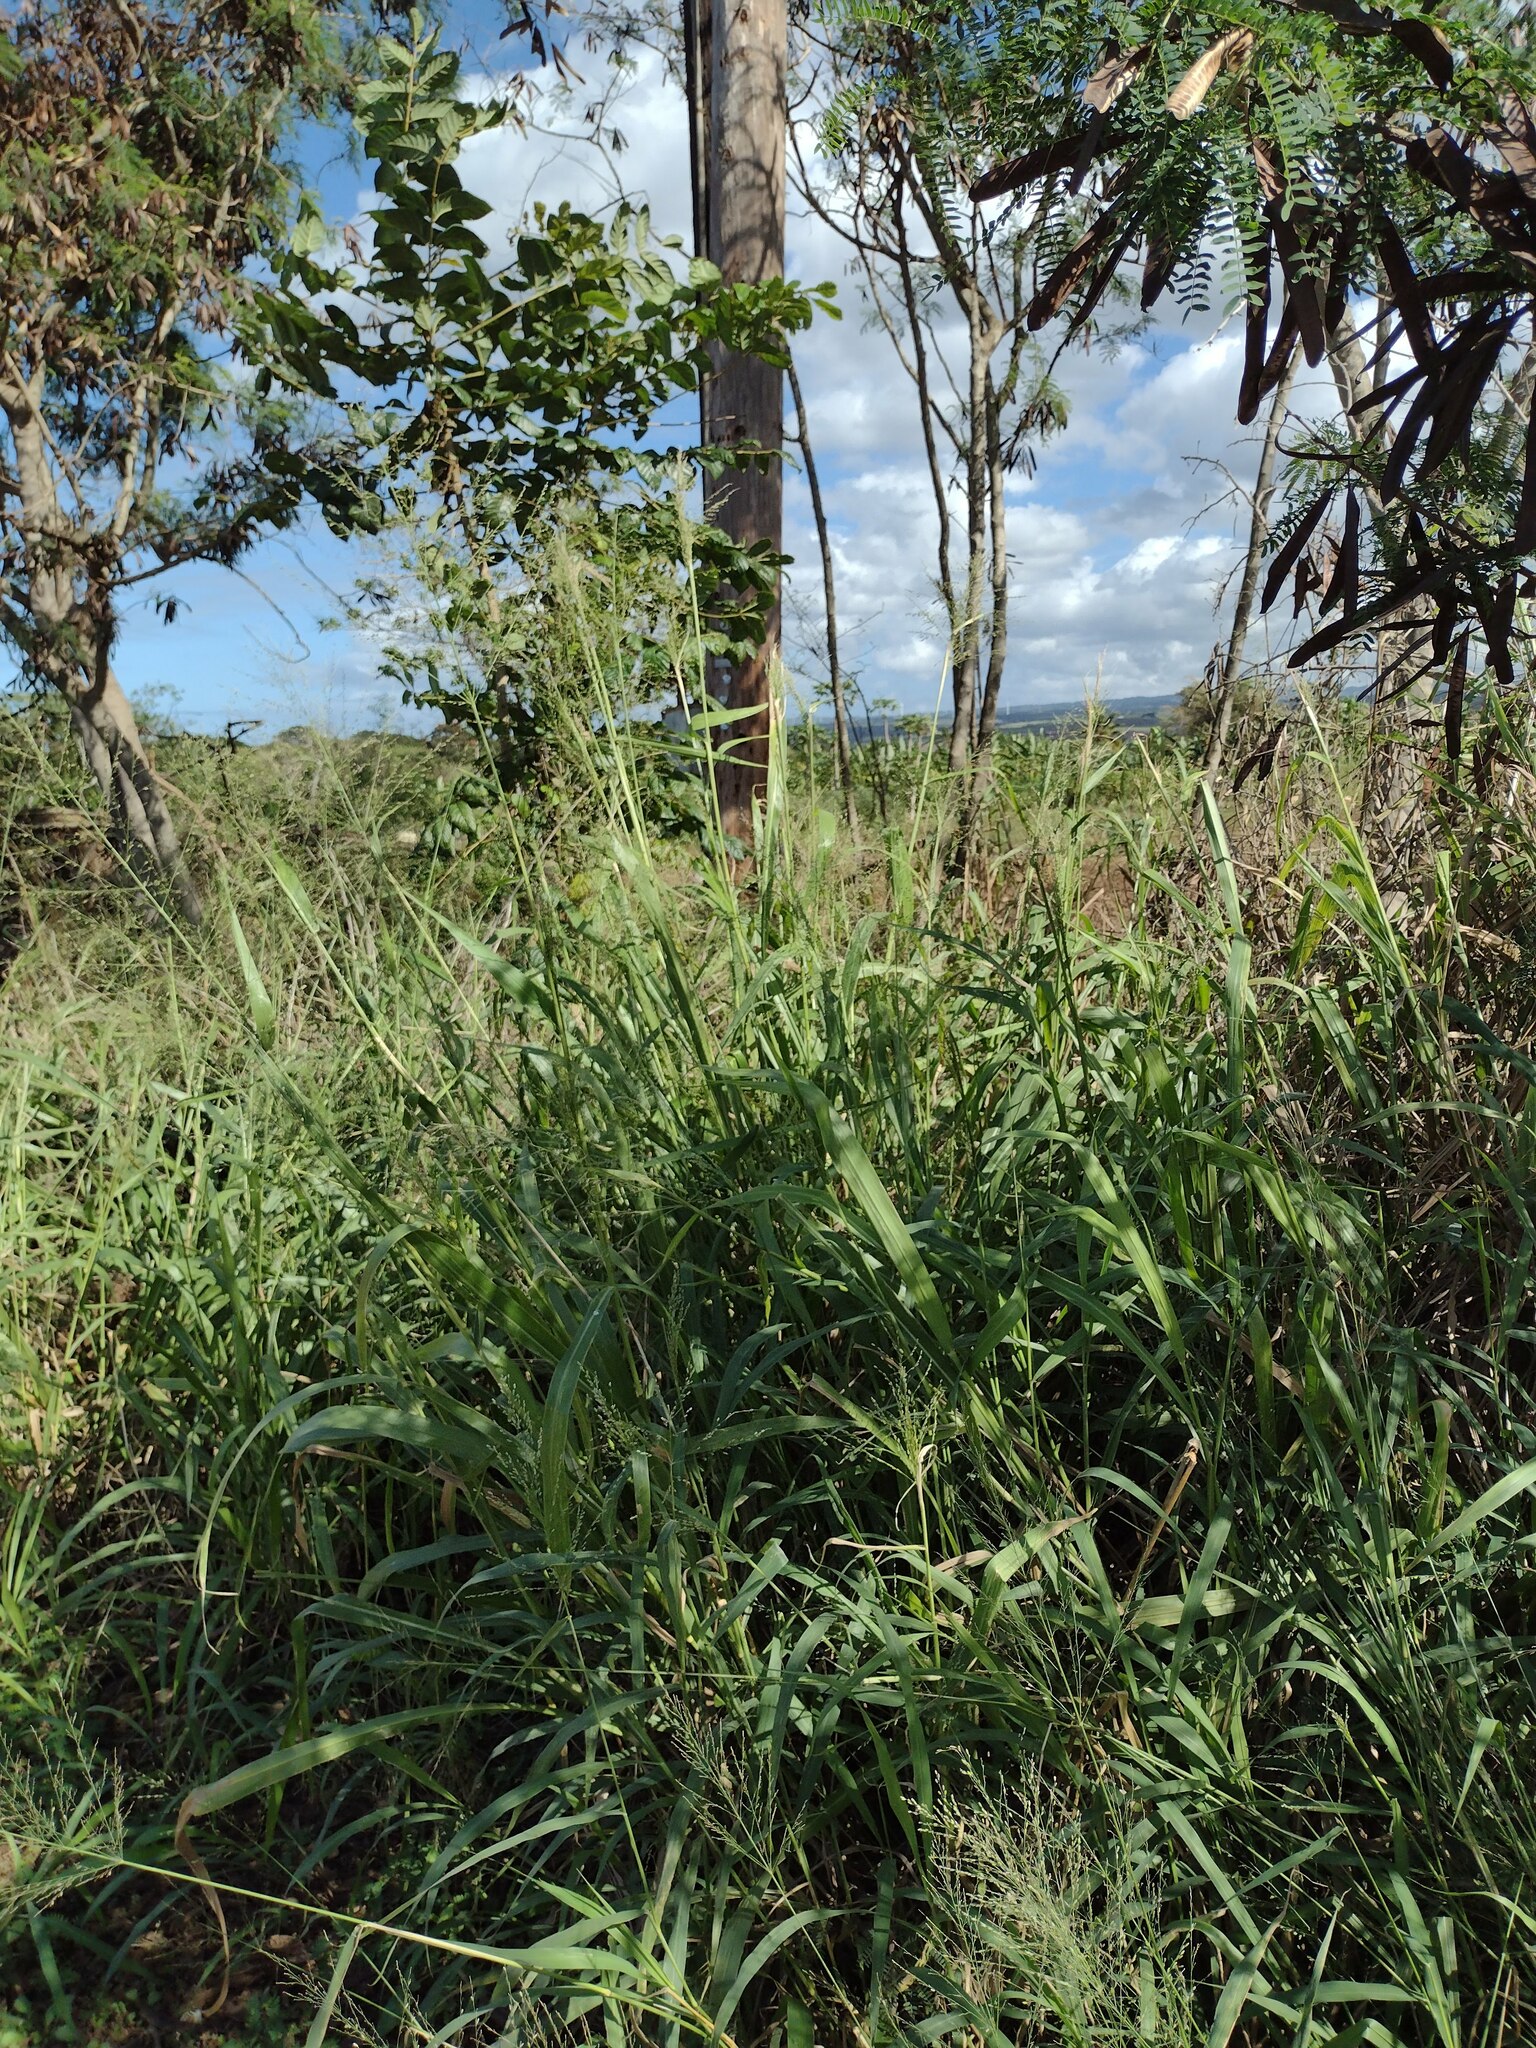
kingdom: Plantae
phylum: Tracheophyta
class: Liliopsida
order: Poales
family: Poaceae
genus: Megathyrsus
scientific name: Megathyrsus maximus
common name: Guineagrass
